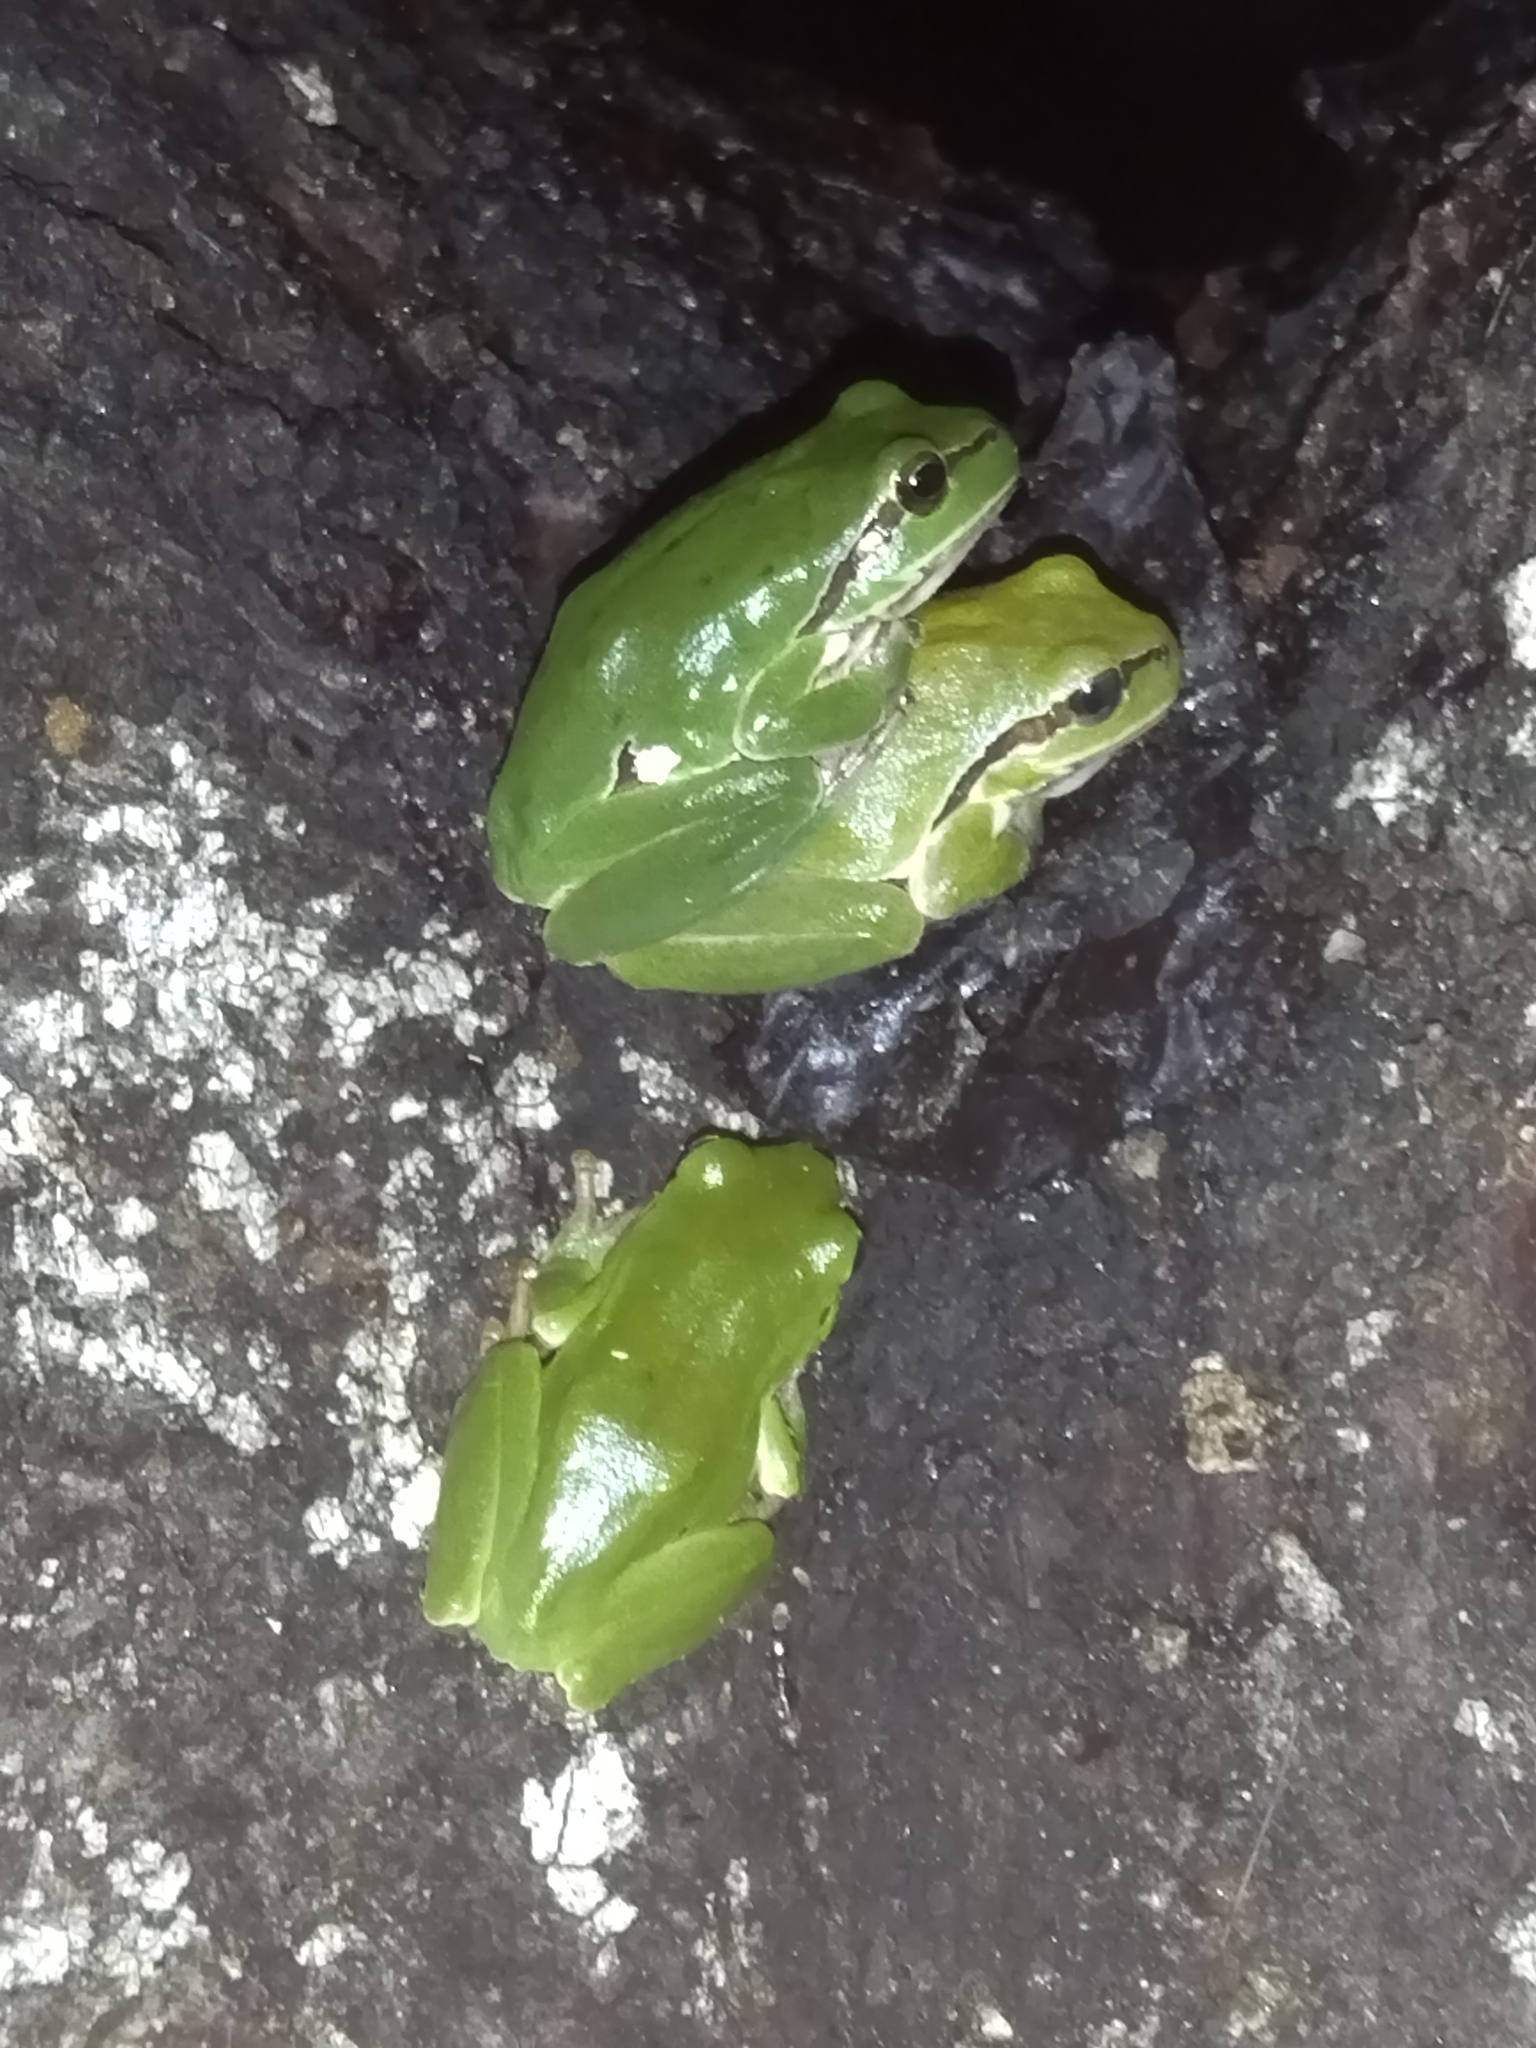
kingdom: Animalia
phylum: Chordata
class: Amphibia
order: Anura
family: Hylidae
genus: Hyla
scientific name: Hyla orientalis
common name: Caucasian treefrog
